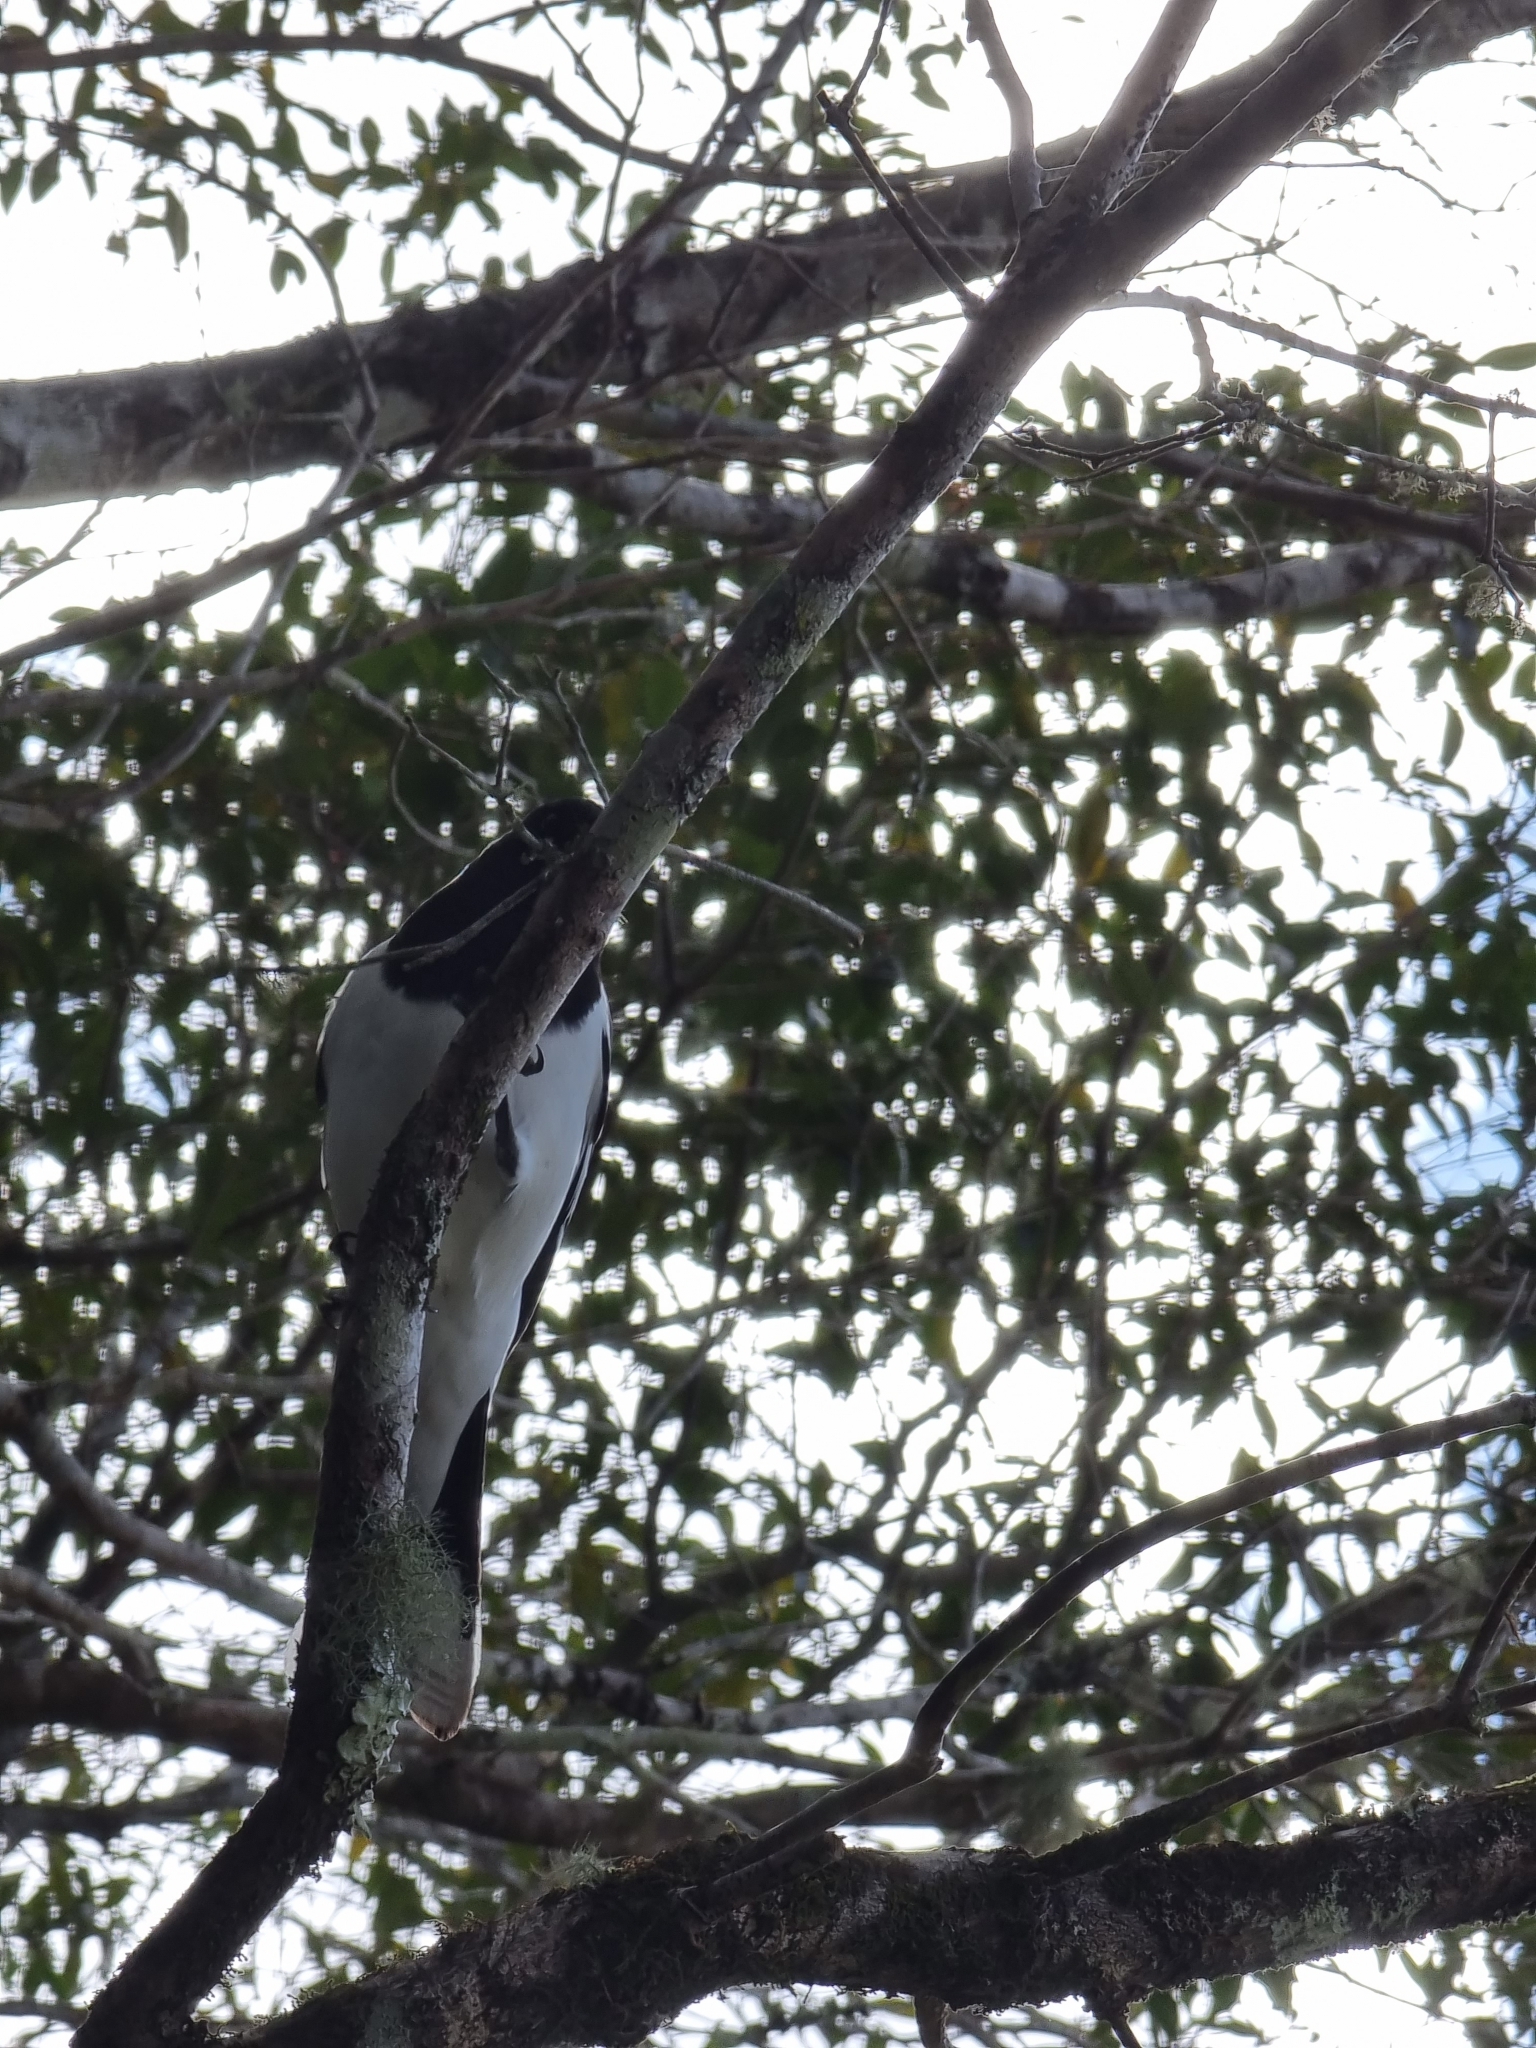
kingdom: Animalia
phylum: Chordata
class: Aves
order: Passeriformes
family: Cracticidae
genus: Cracticus
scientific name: Cracticus nigrogularis
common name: Pied butcherbird
